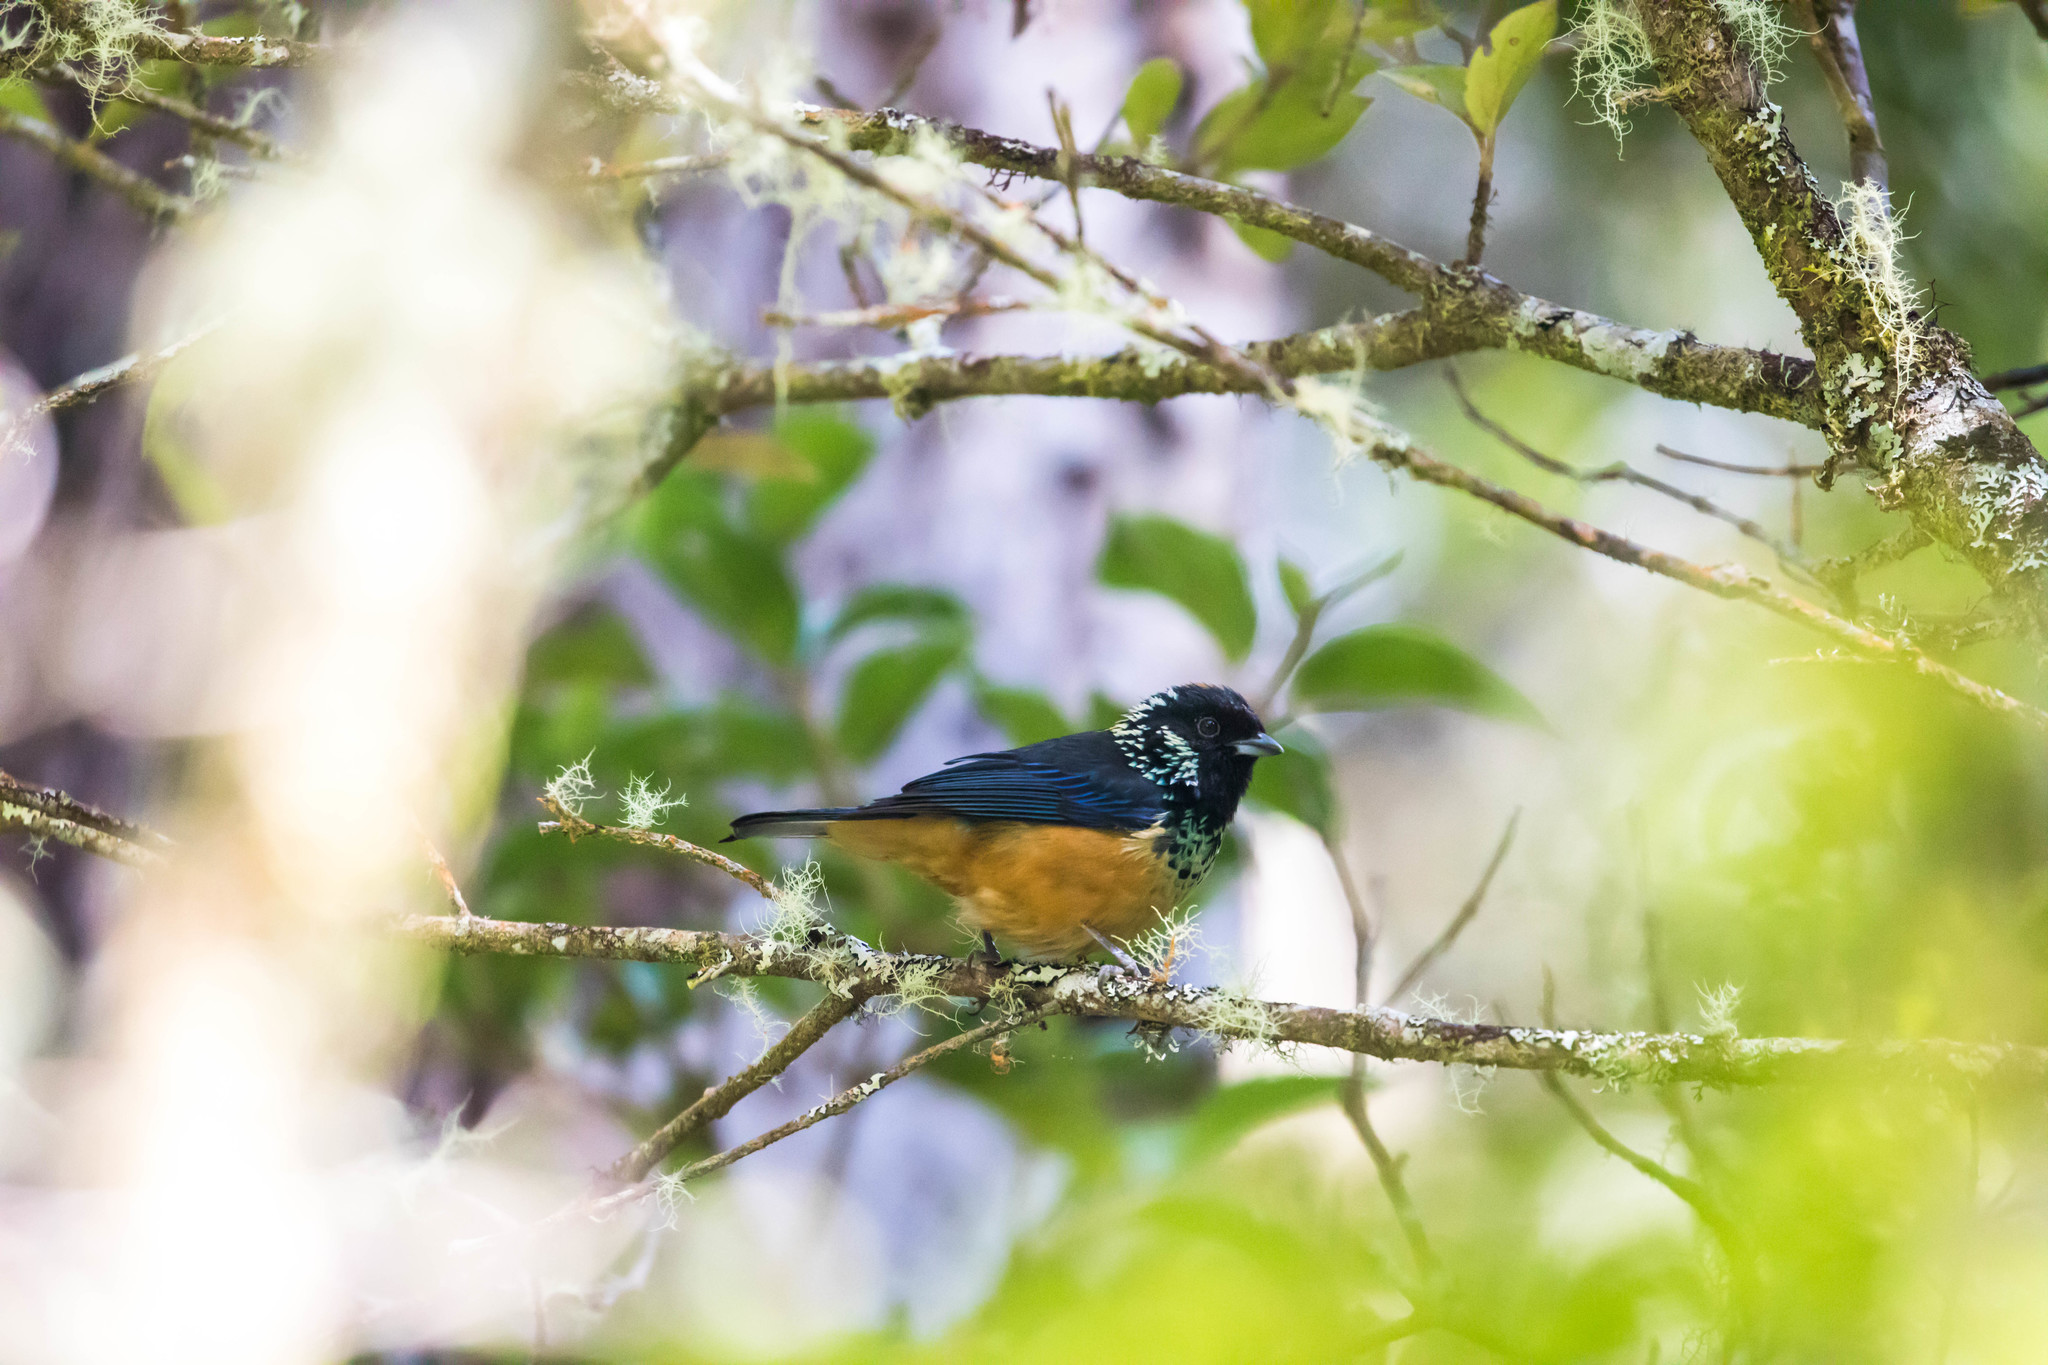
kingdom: Animalia
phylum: Chordata
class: Aves
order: Passeriformes
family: Thraupidae
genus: Tangara
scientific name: Tangara dowii
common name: Spangle-cheeked tanager
